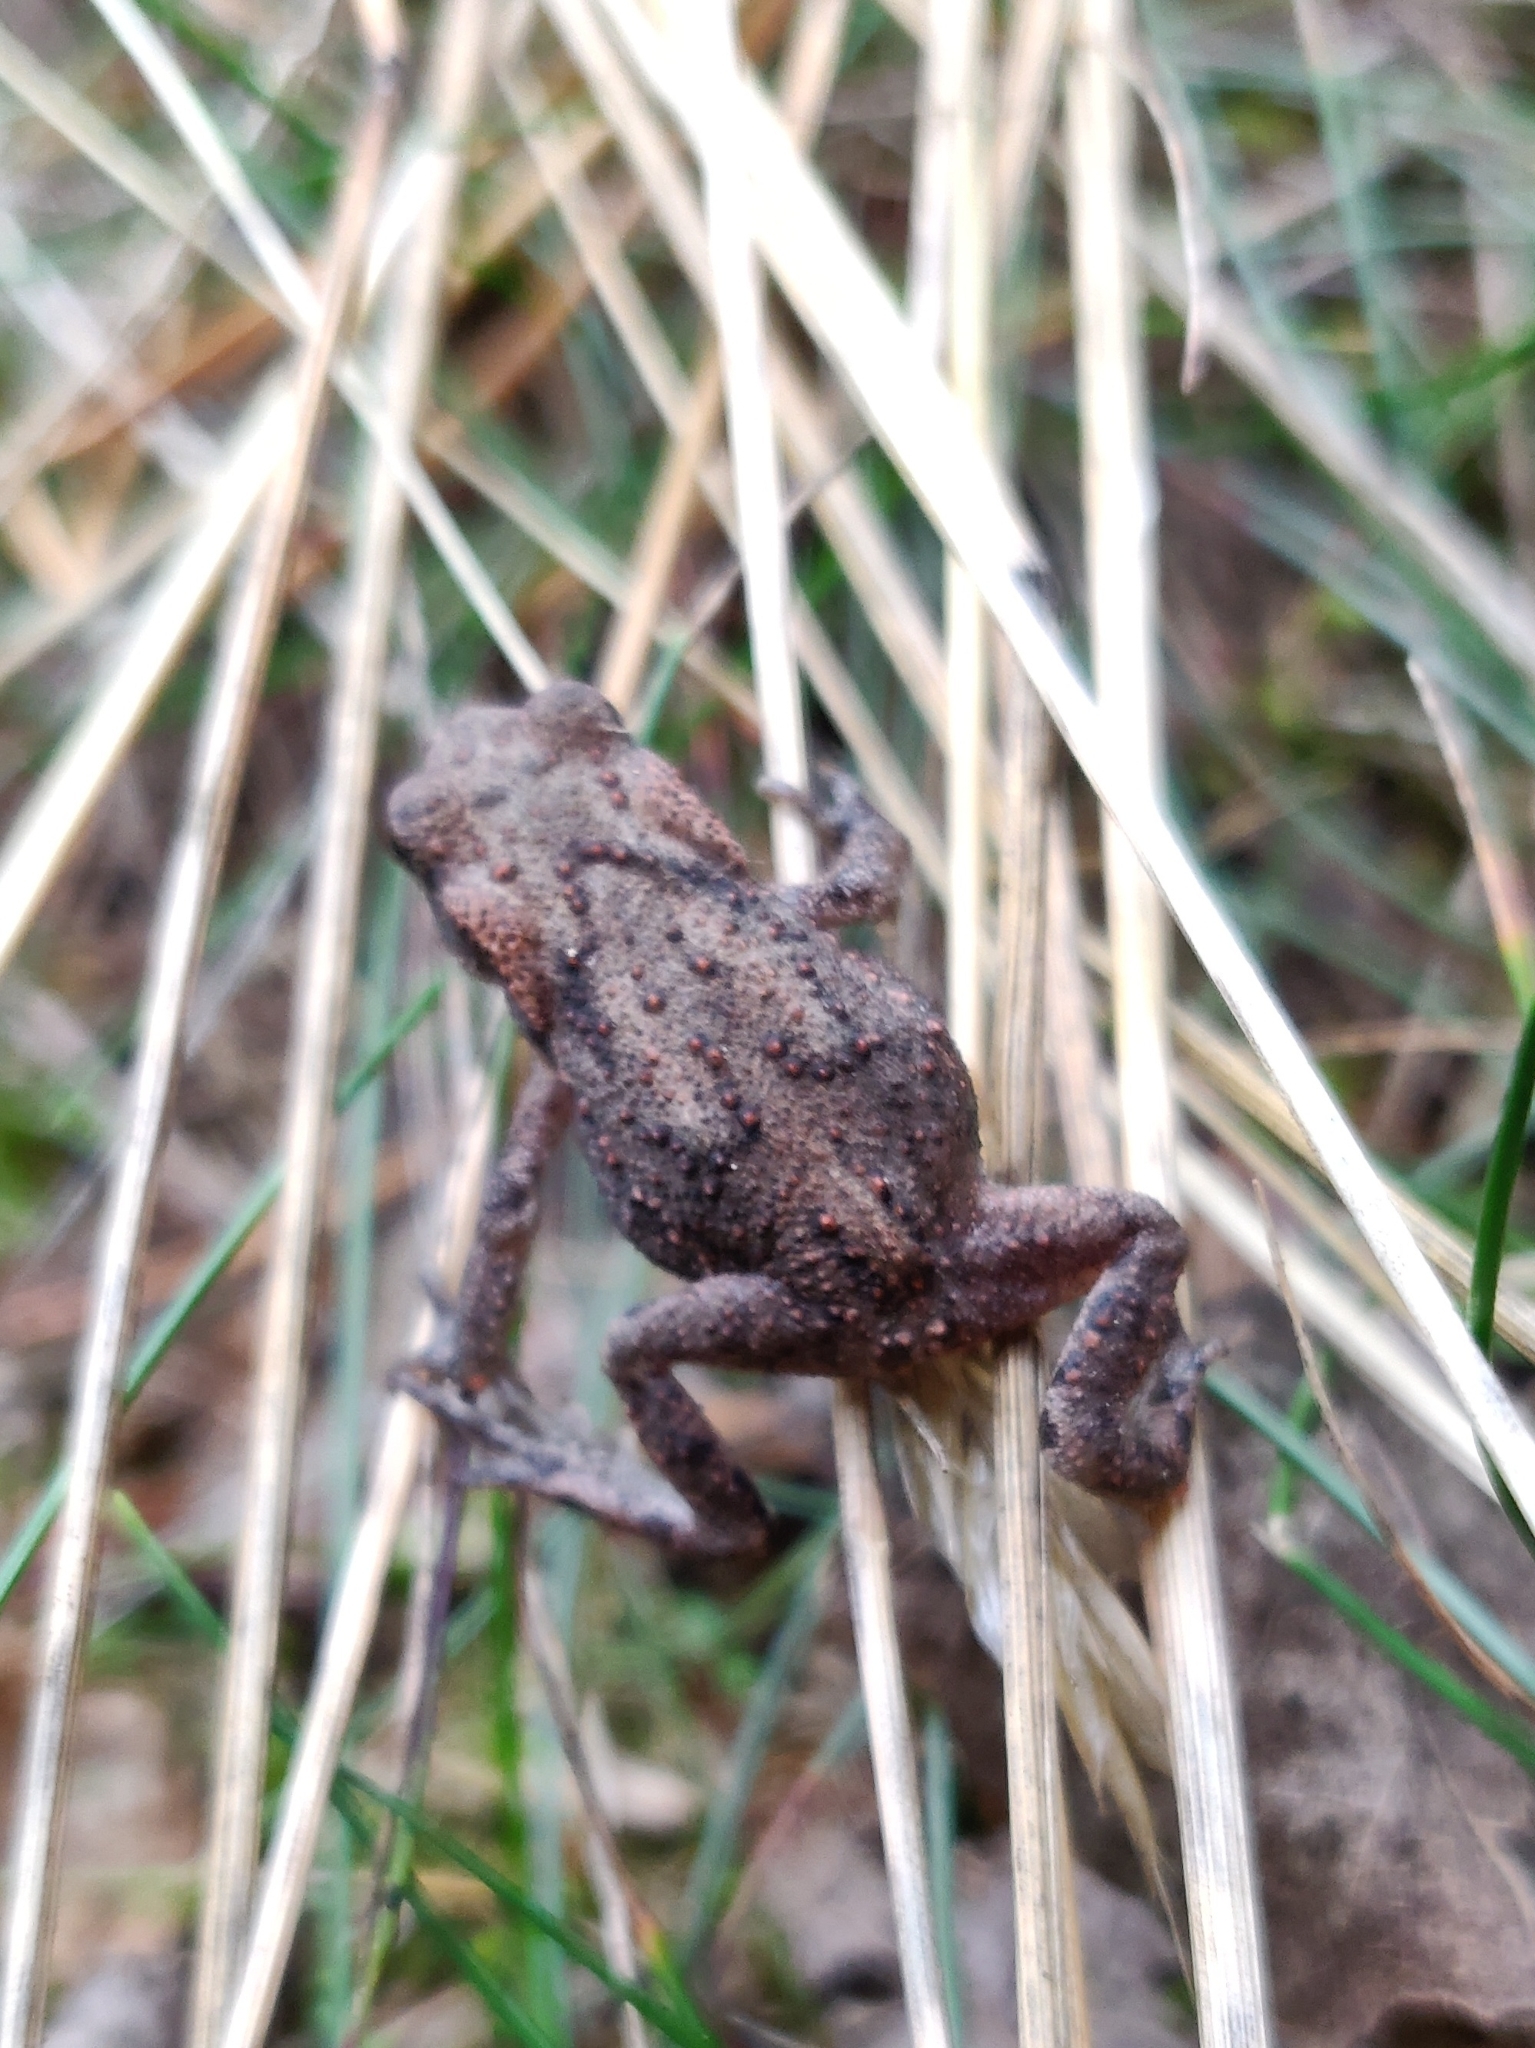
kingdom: Animalia
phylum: Chordata
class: Amphibia
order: Anura
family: Bufonidae
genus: Bufo
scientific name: Bufo bufo
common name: Common toad
